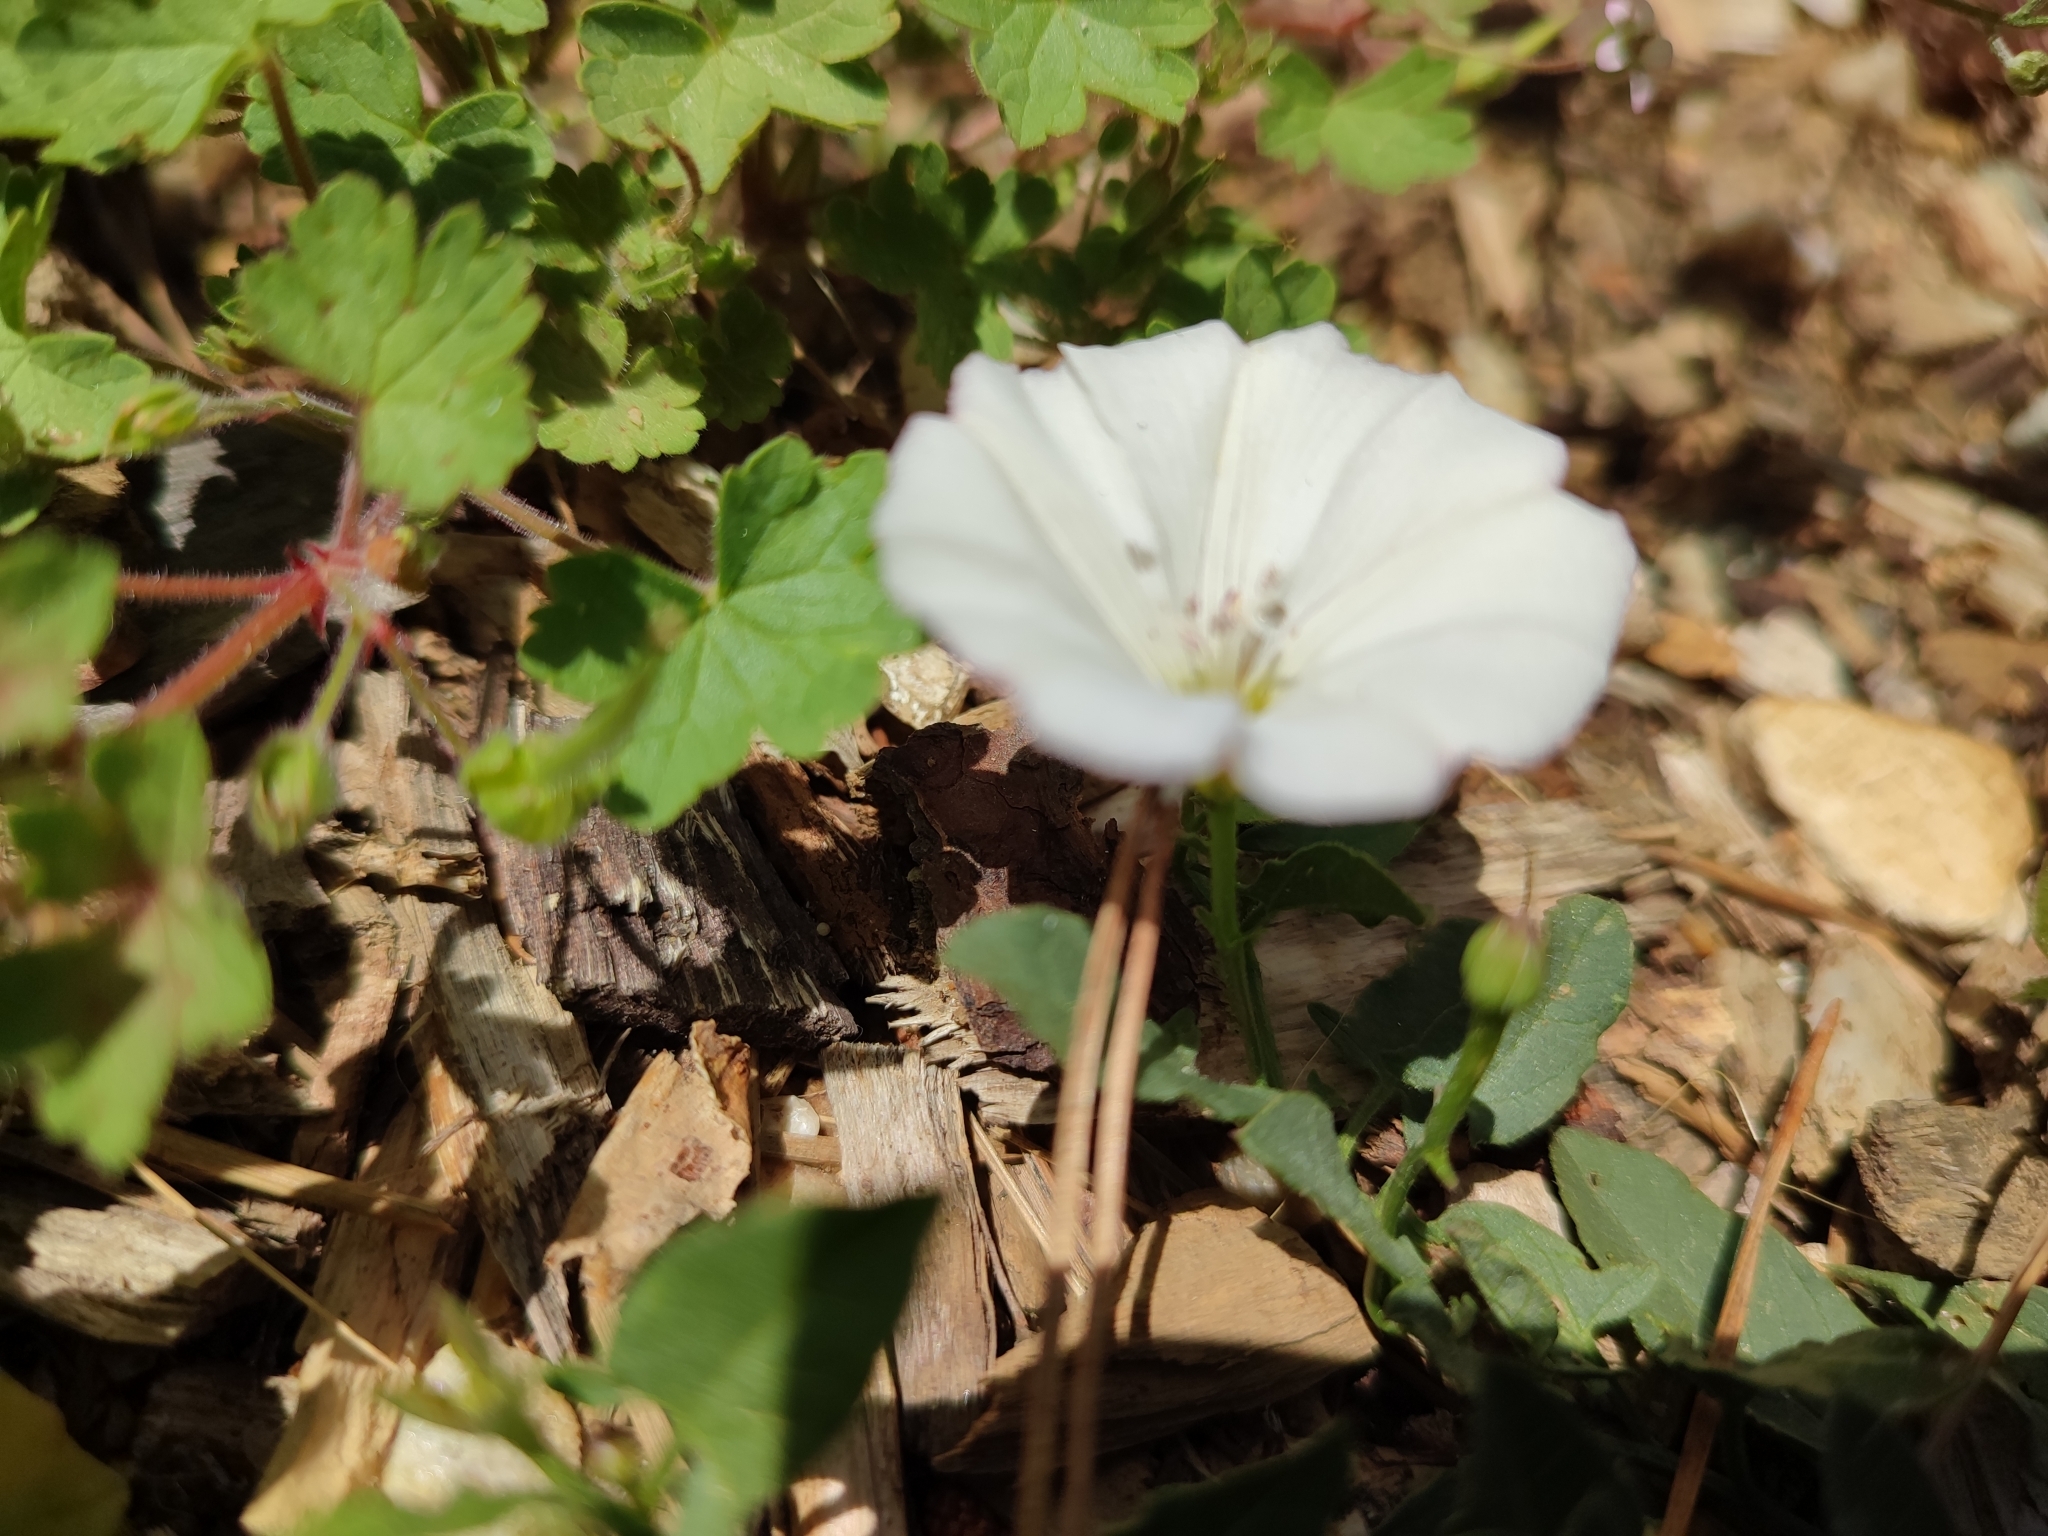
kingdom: Plantae
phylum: Tracheophyta
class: Magnoliopsida
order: Solanales
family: Convolvulaceae
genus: Convolvulus
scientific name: Convolvulus arvensis
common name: Field bindweed
